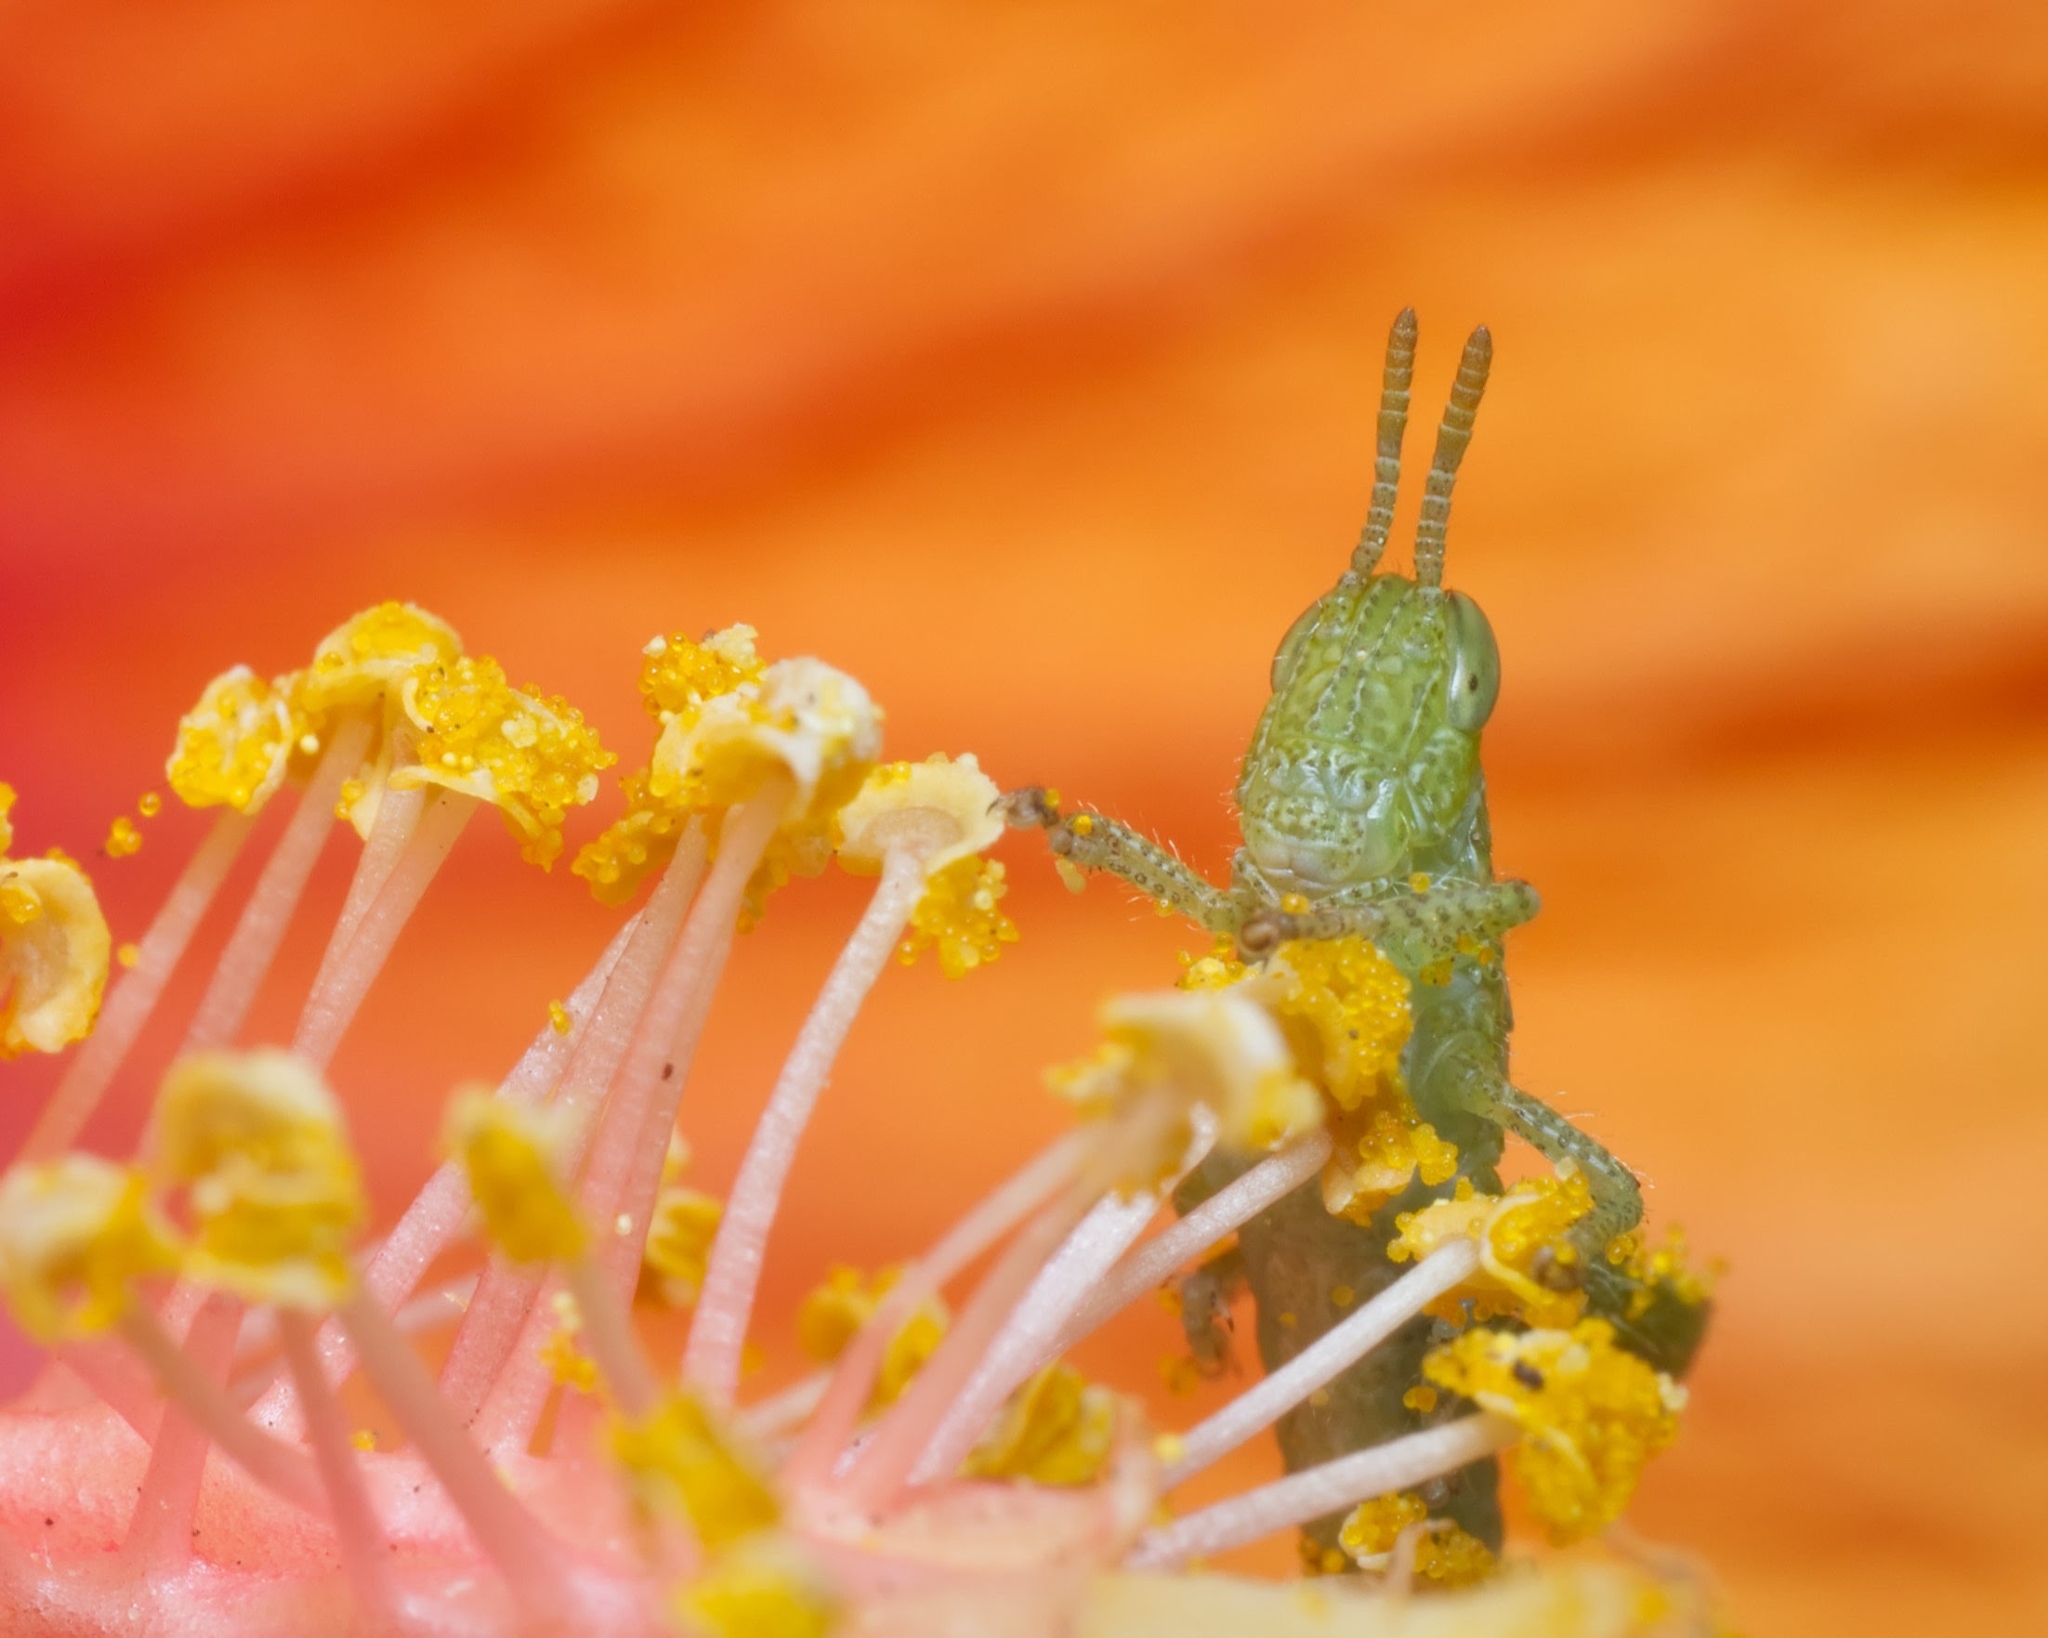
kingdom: Animalia
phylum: Arthropoda
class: Insecta
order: Orthoptera
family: Acrididae
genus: Acanthacris
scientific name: Acanthacris ruficornis
